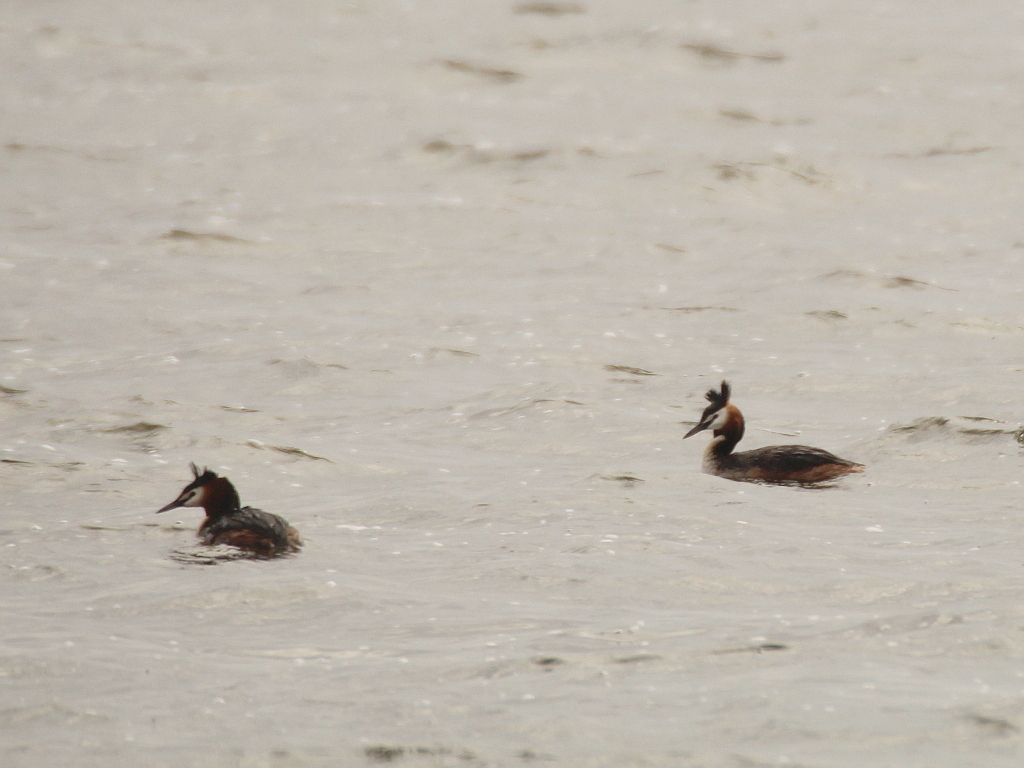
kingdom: Animalia
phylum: Chordata
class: Aves
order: Podicipediformes
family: Podicipedidae
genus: Podiceps
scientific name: Podiceps cristatus
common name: Great crested grebe
